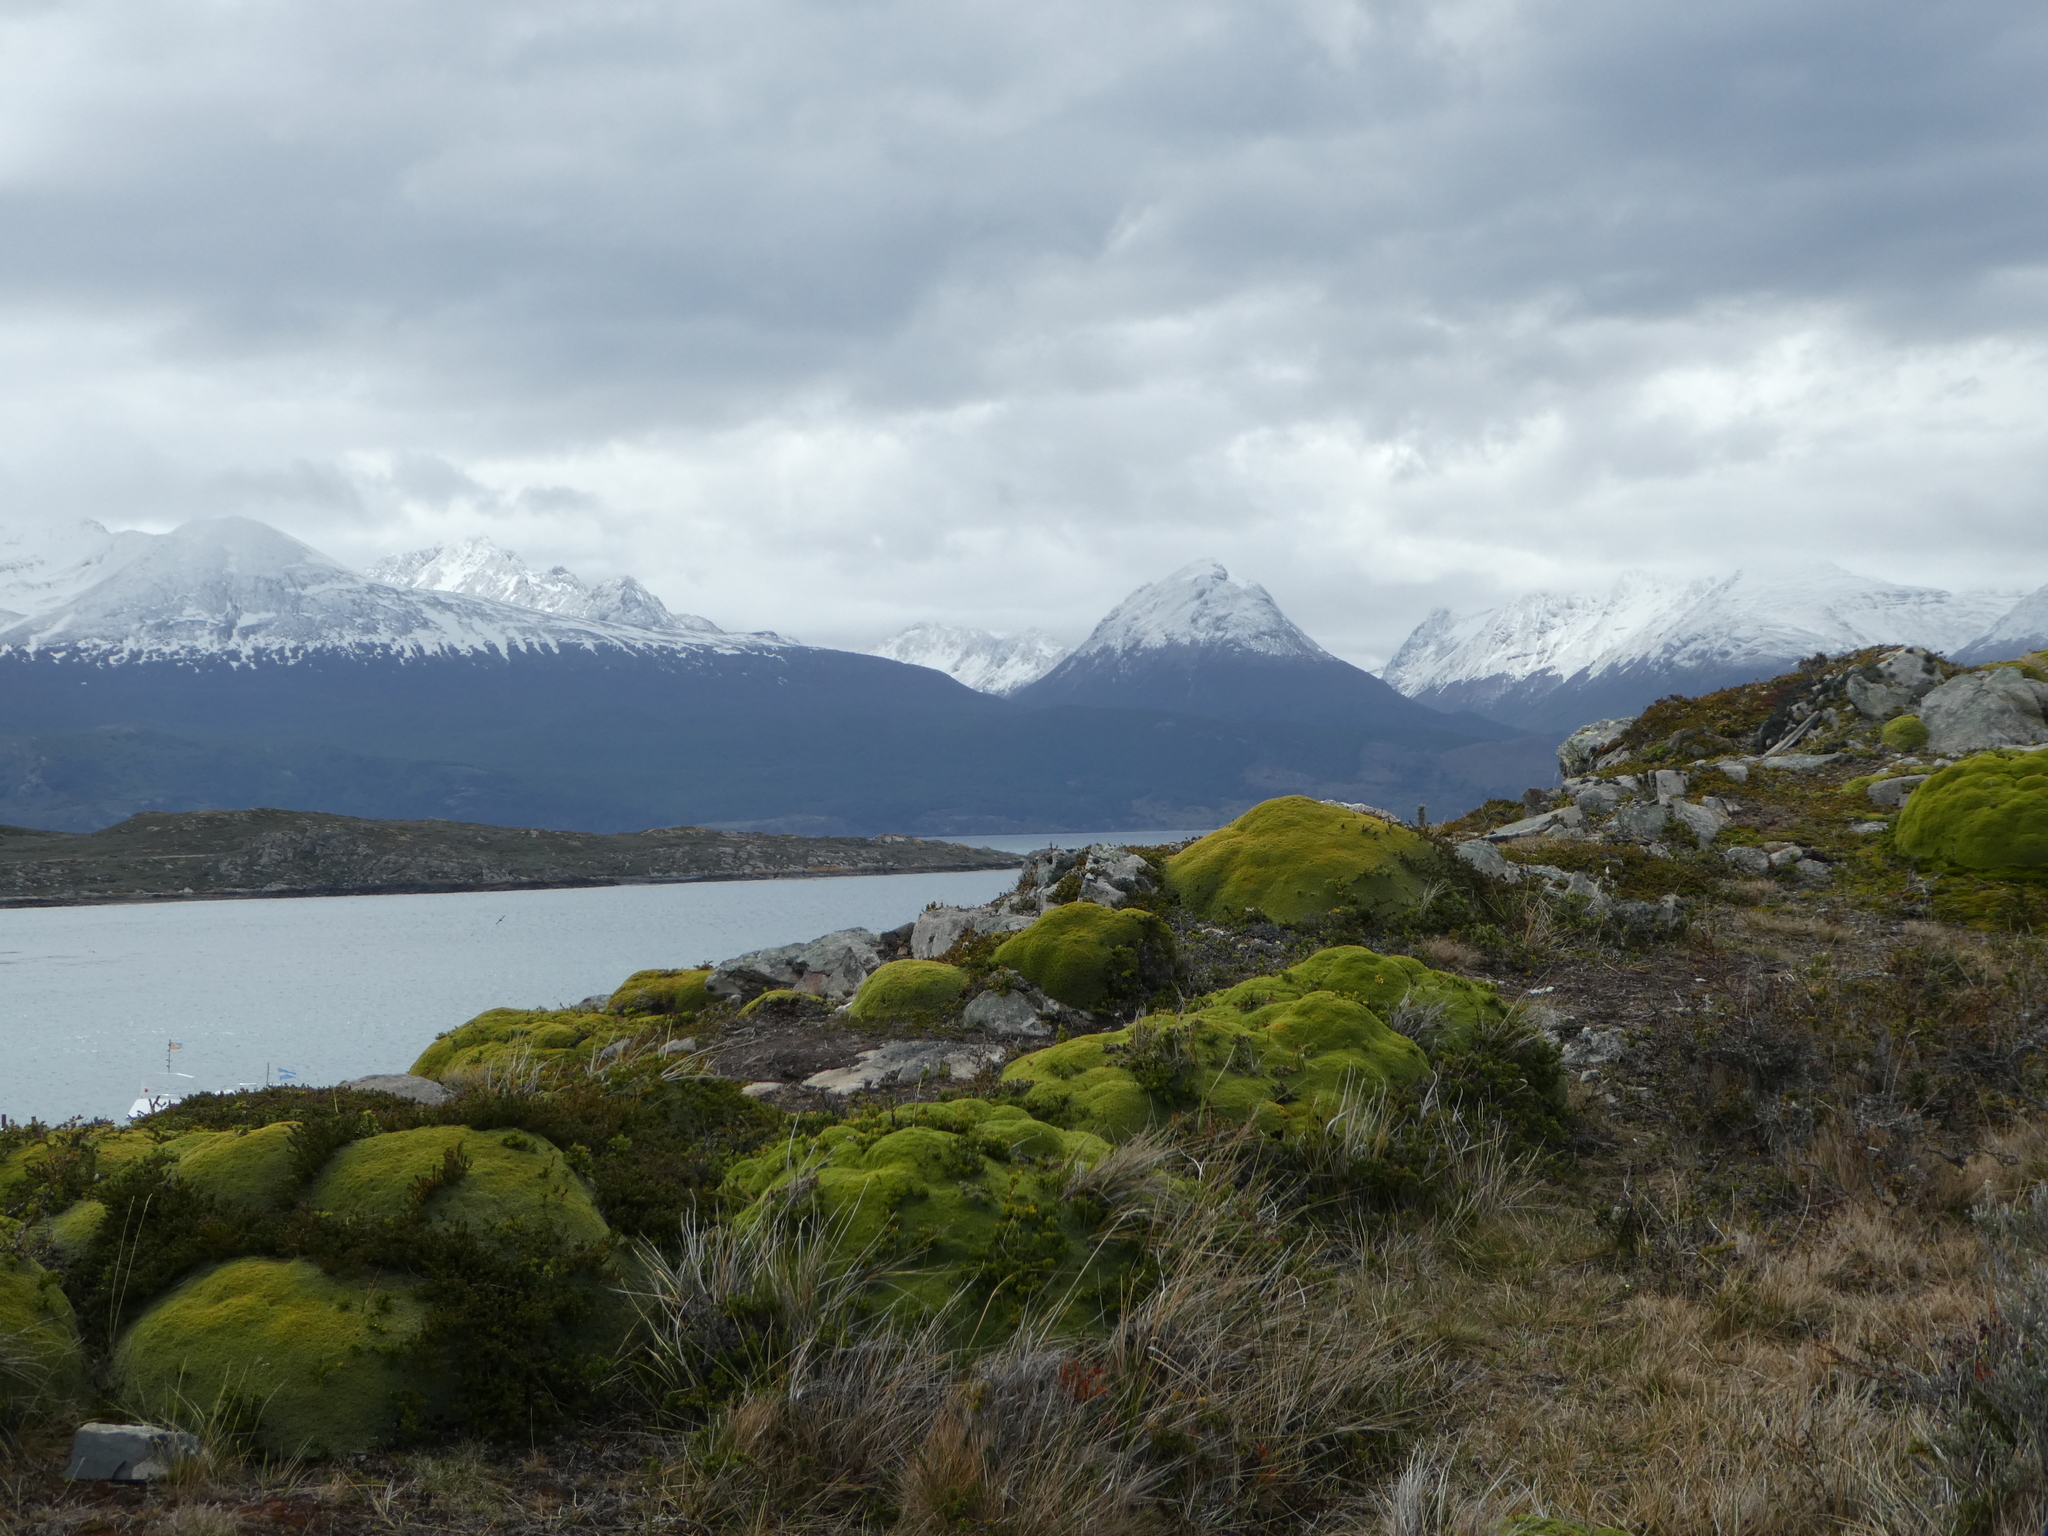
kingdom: Plantae
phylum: Tracheophyta
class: Magnoliopsida
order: Apiales
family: Apiaceae
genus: Bolax
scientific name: Bolax gummifera
